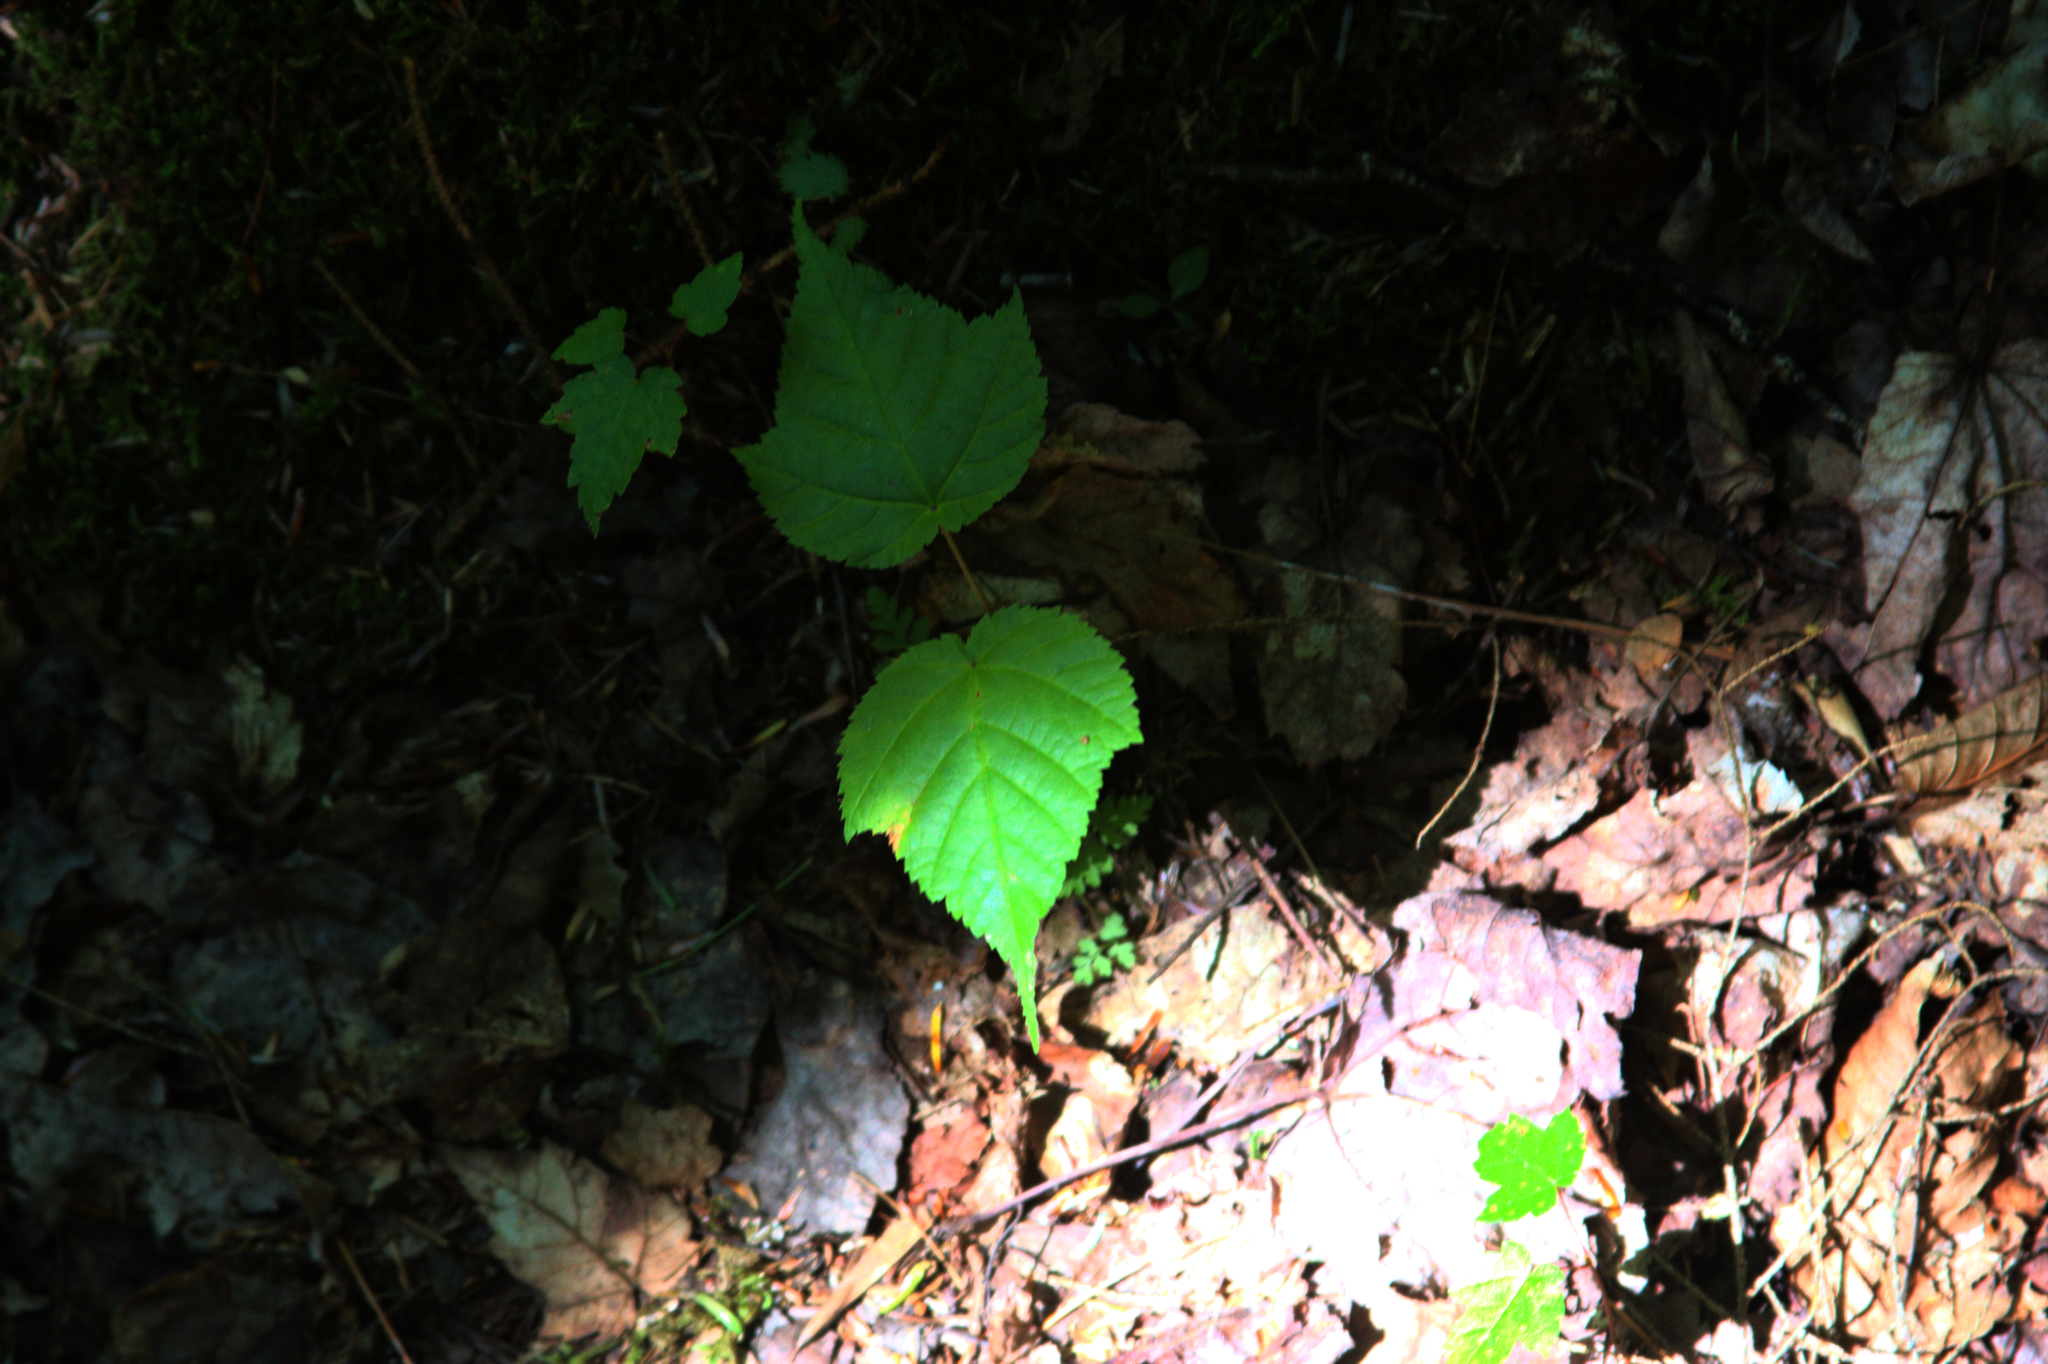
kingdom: Plantae
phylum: Tracheophyta
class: Magnoliopsida
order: Sapindales
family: Sapindaceae
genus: Acer
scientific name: Acer pensylvanicum
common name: Moosewood
